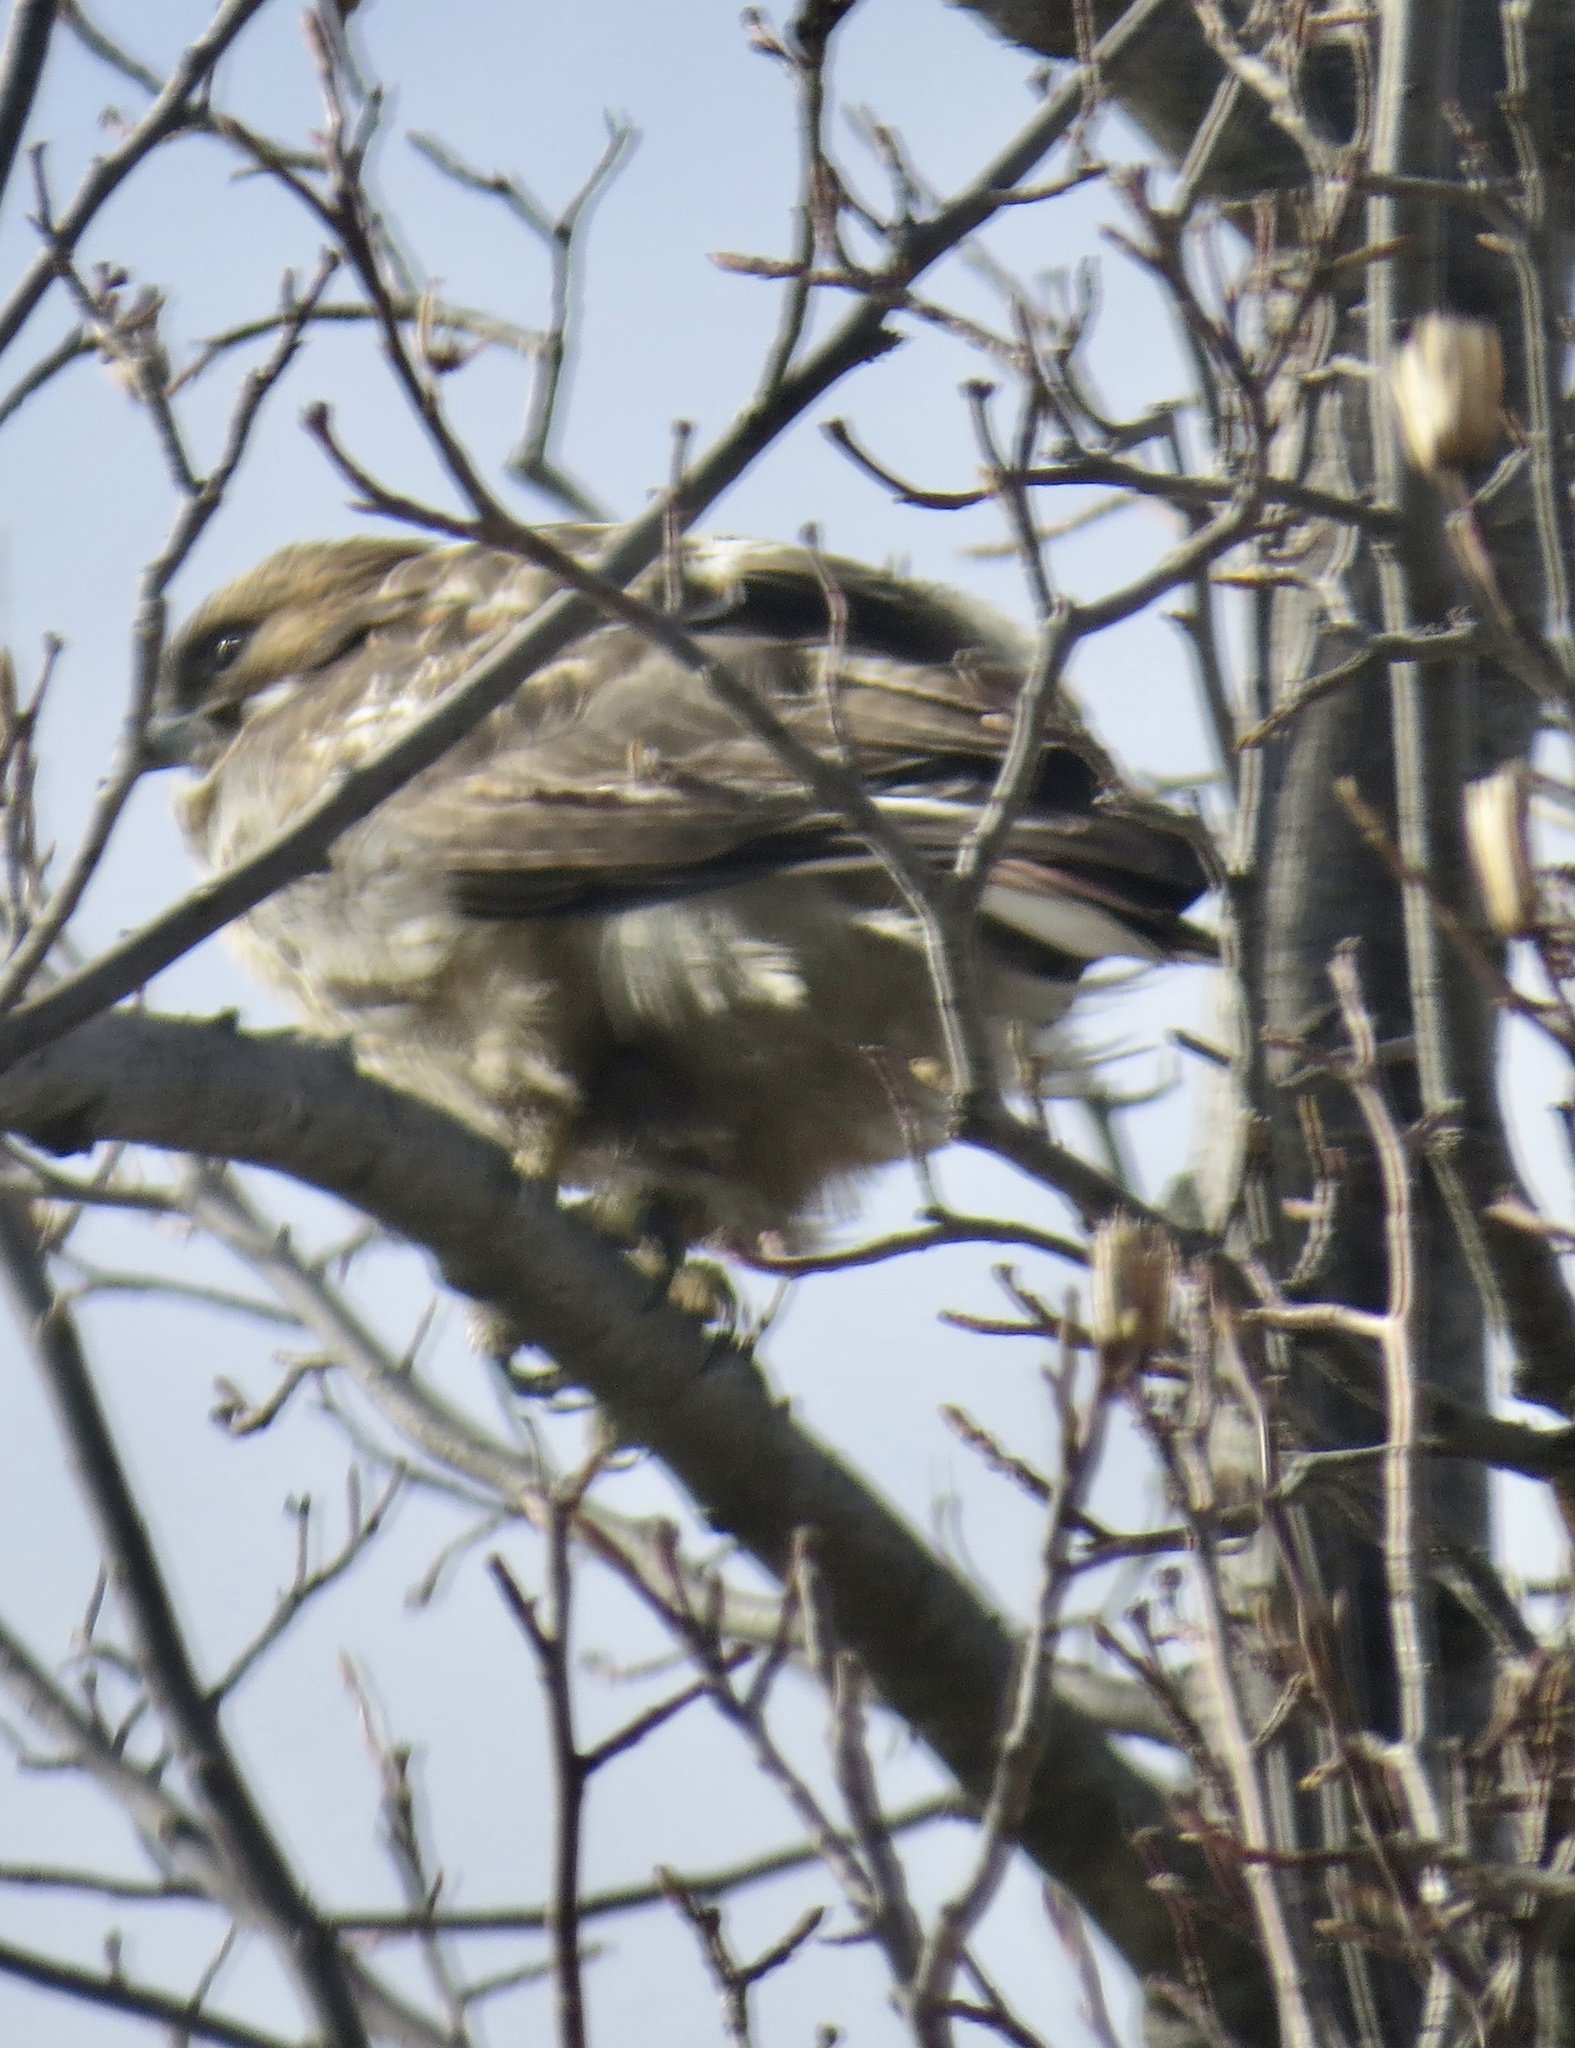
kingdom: Animalia
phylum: Chordata
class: Aves
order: Accipitriformes
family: Accipitridae
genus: Buteo
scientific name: Buteo jamaicensis
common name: Red-tailed hawk
